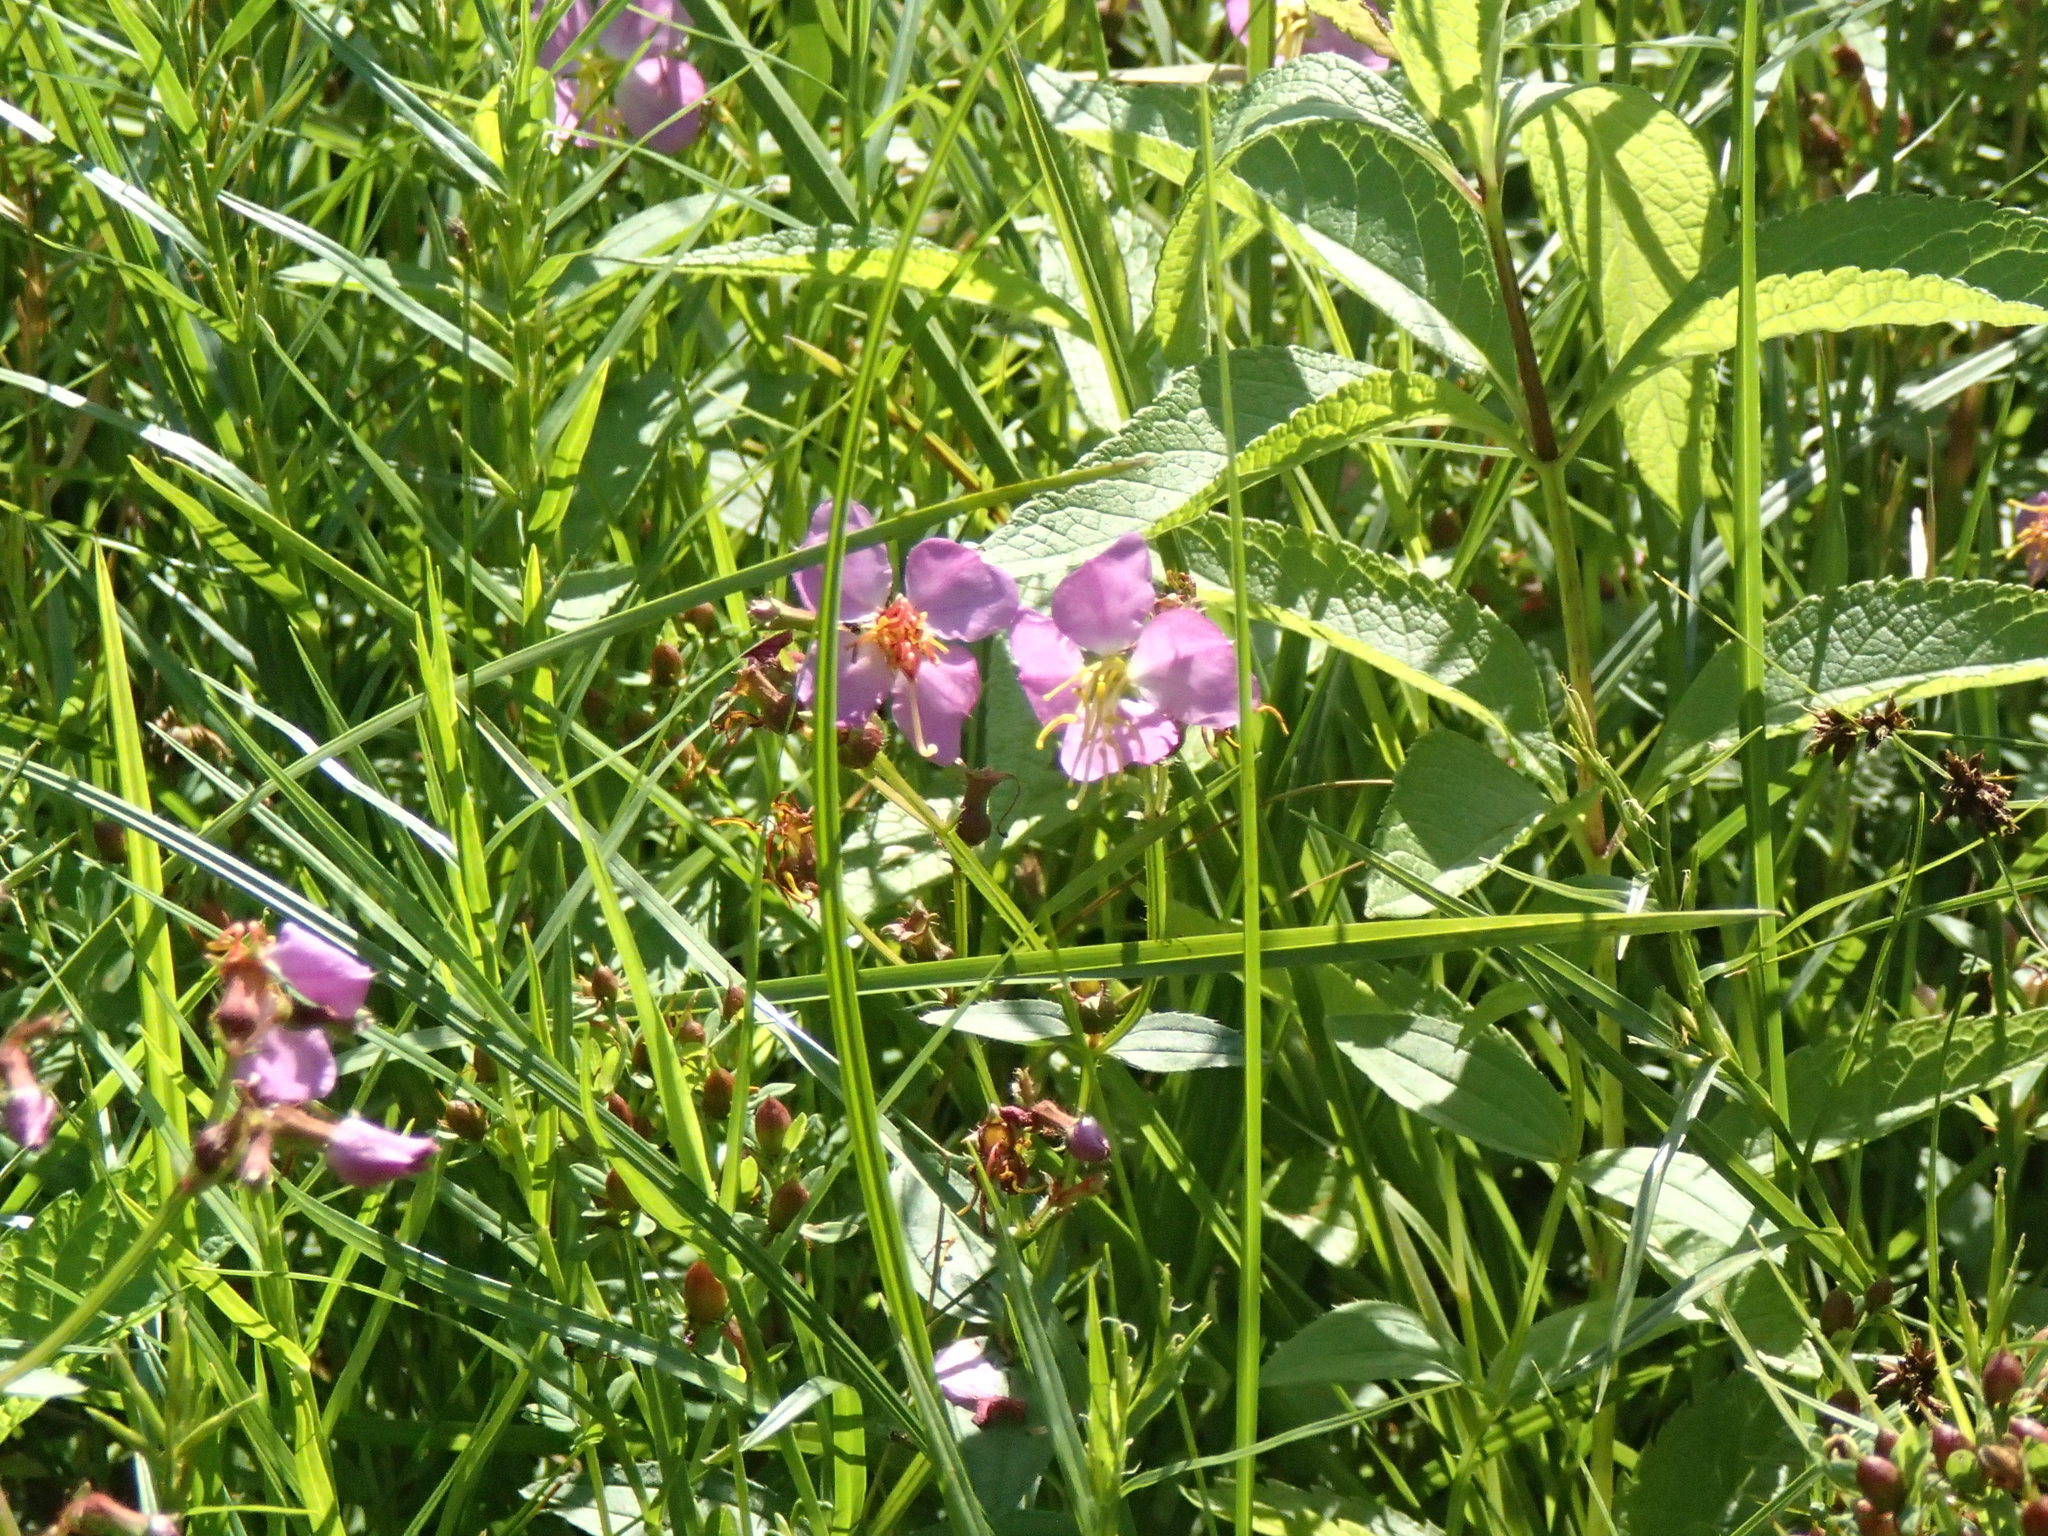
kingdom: Plantae
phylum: Tracheophyta
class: Magnoliopsida
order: Myrtales
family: Melastomataceae
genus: Rhexia
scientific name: Rhexia virginica
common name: Common meadow beauty
